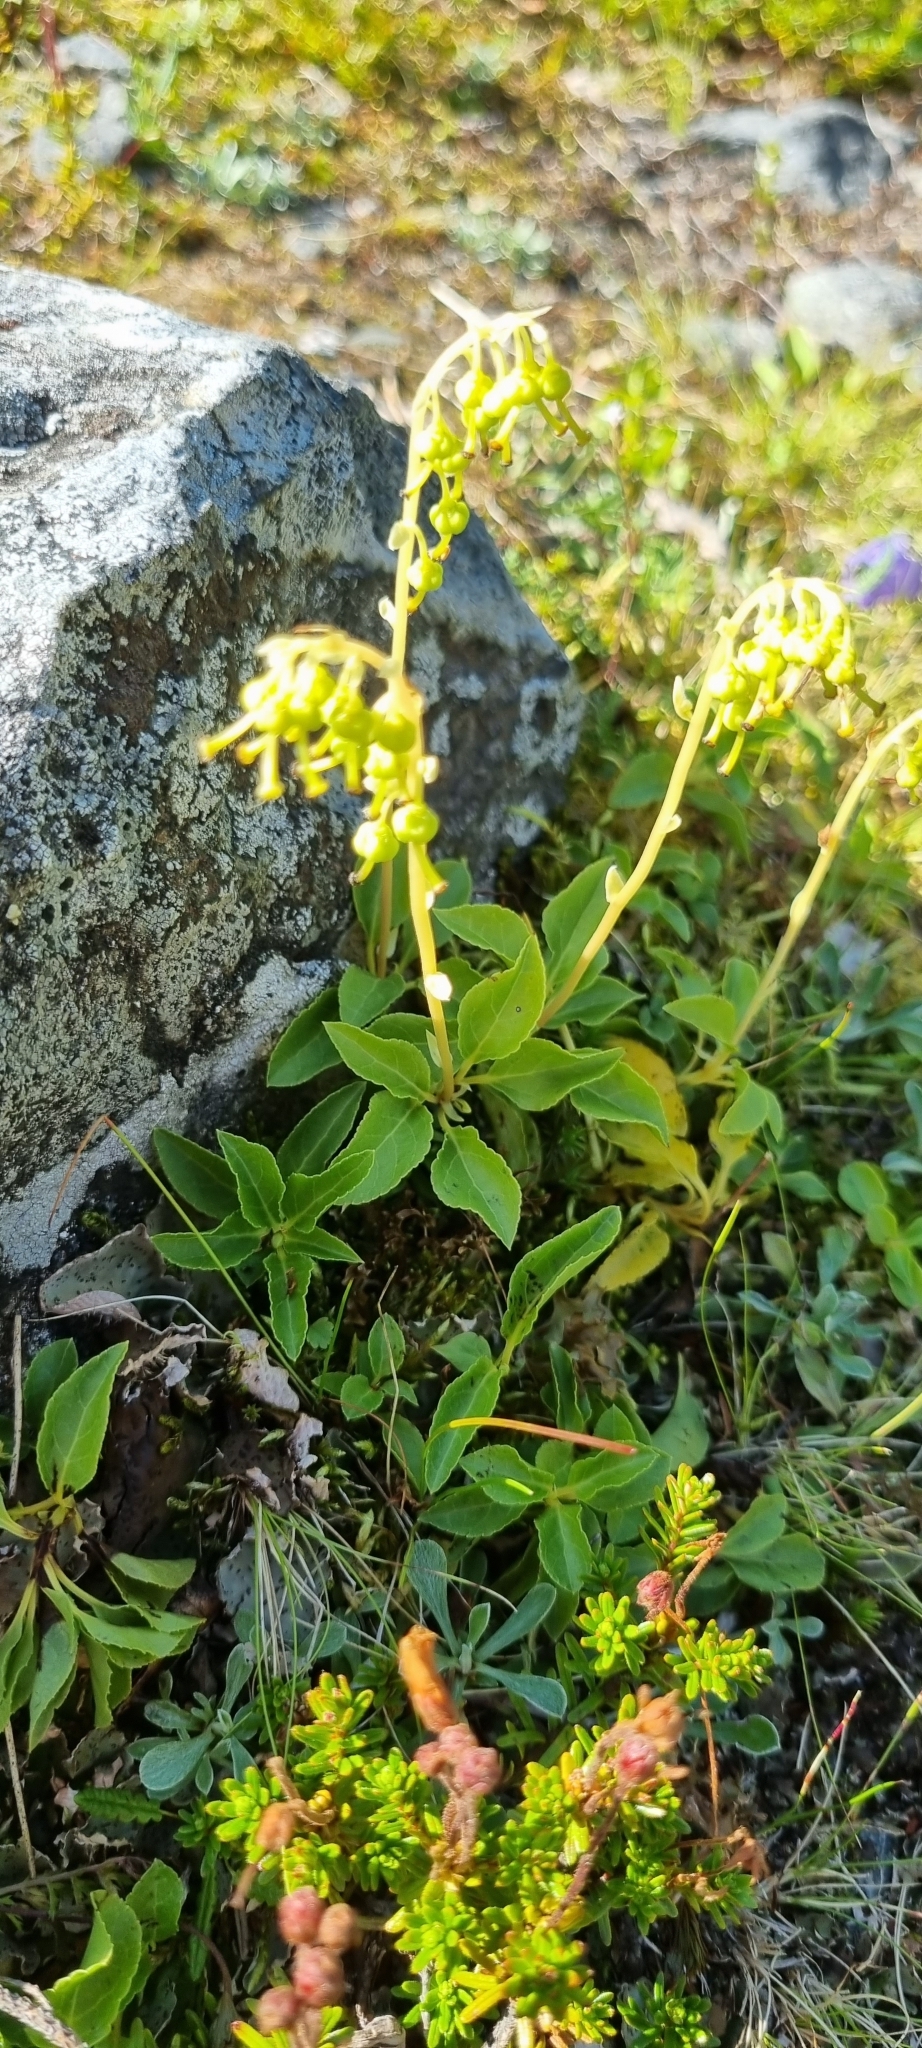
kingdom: Plantae
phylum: Tracheophyta
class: Magnoliopsida
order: Ericales
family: Ericaceae
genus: Orthilia
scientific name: Orthilia secunda
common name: One-sided orthilia
